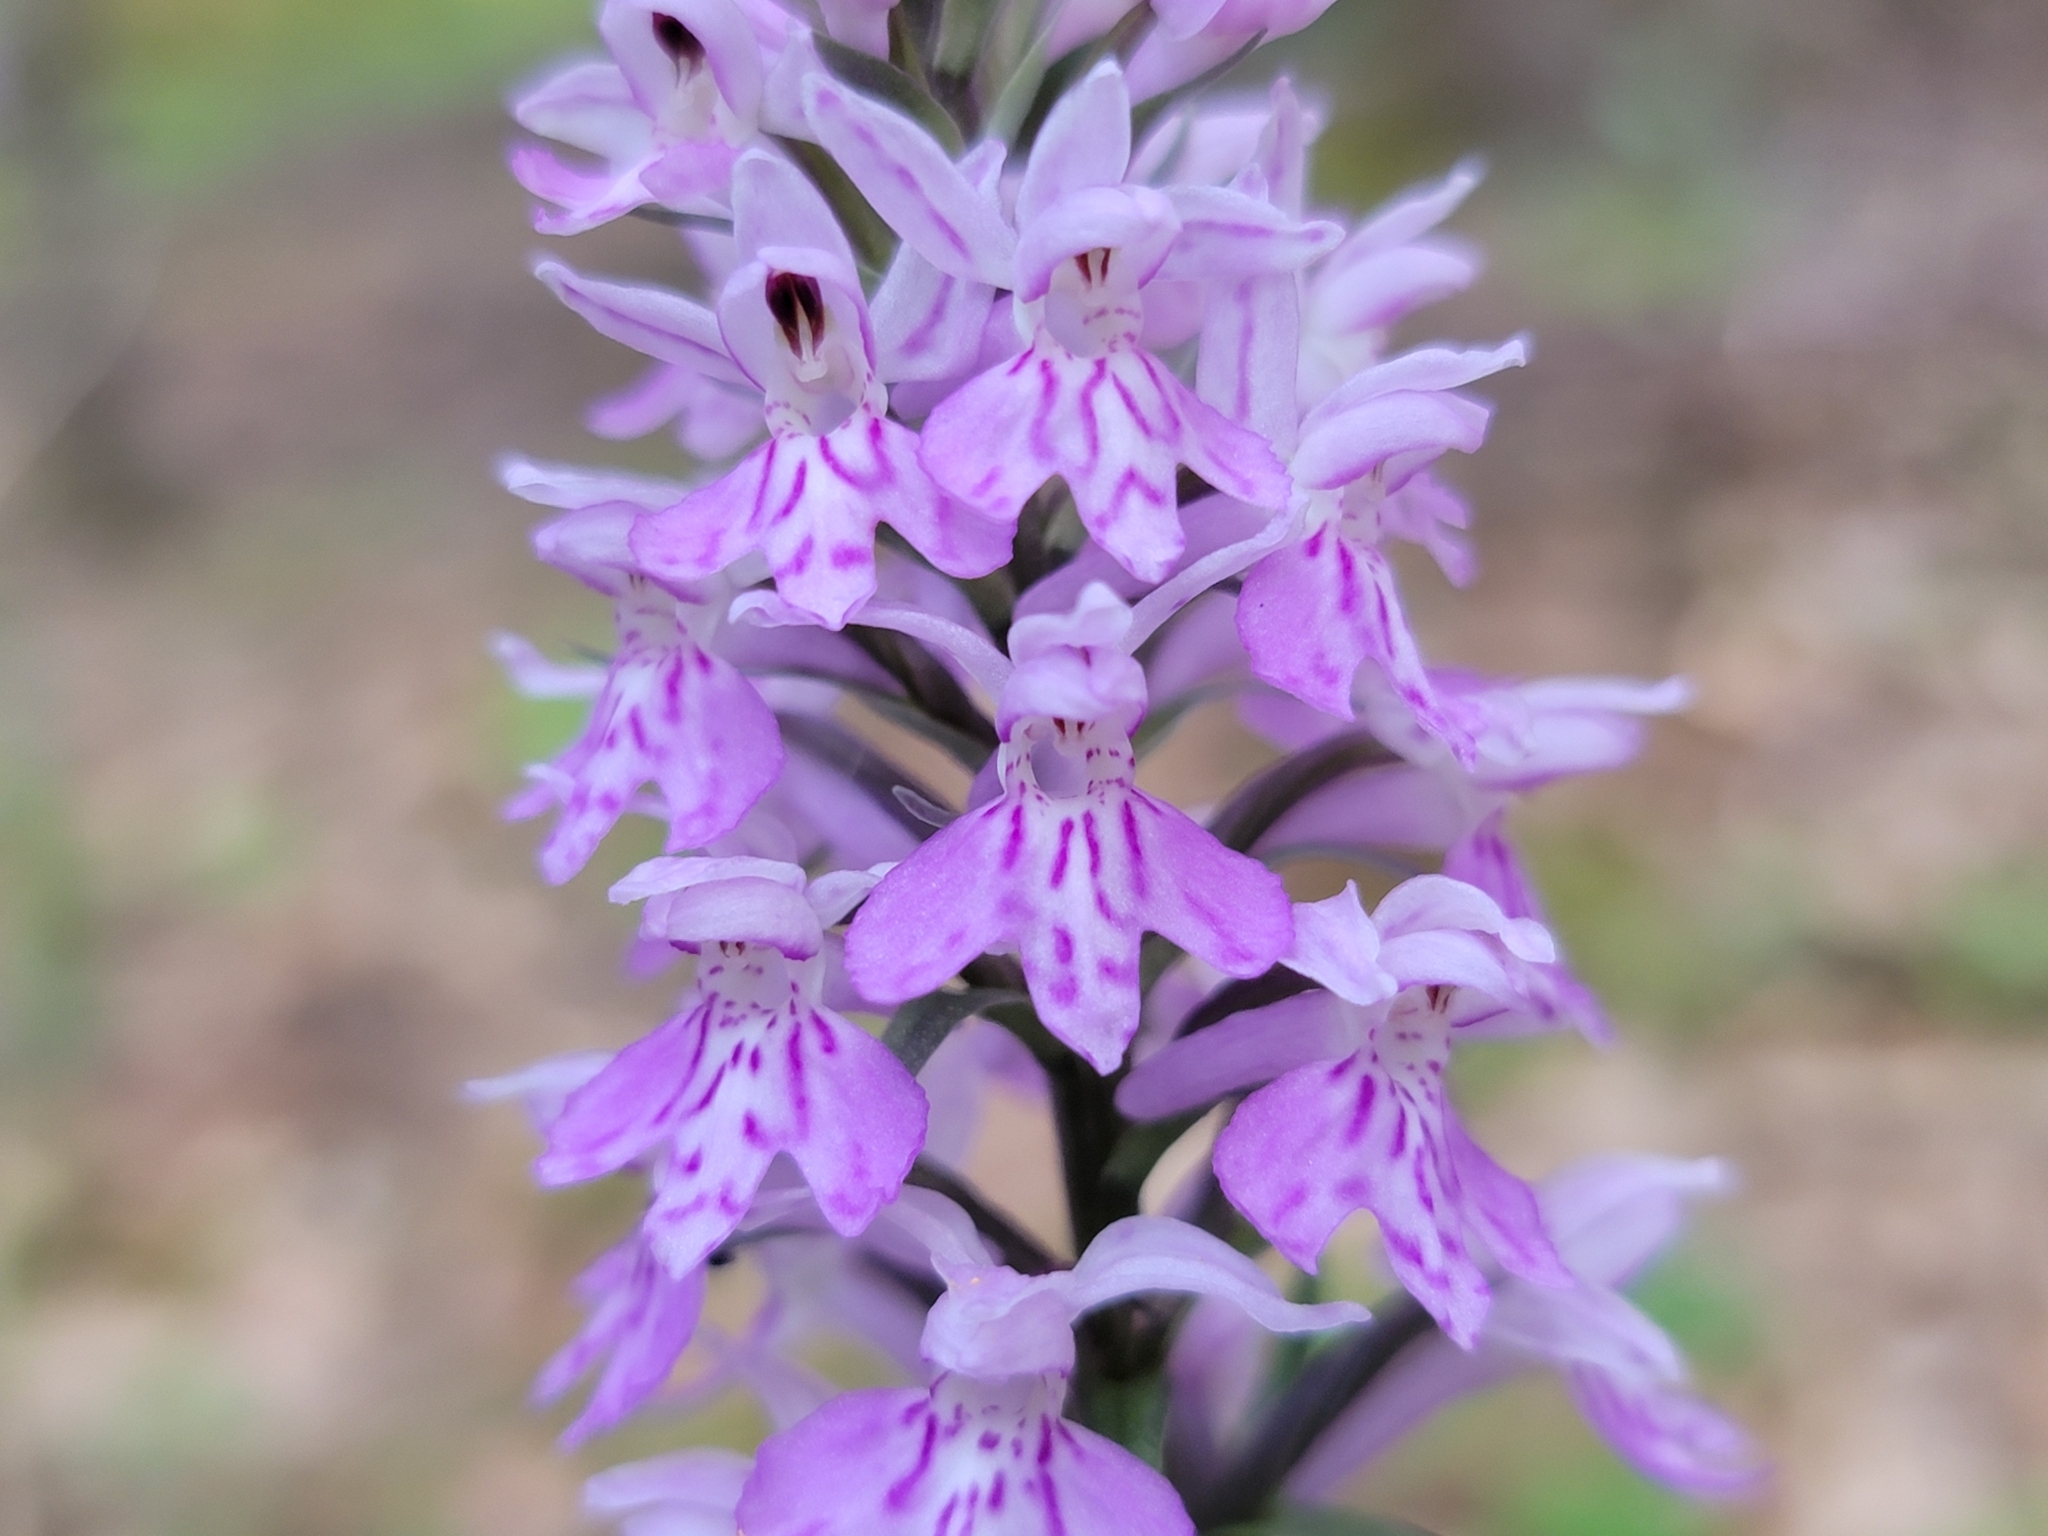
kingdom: Plantae
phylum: Tracheophyta
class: Liliopsida
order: Asparagales
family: Orchidaceae
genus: Dactylorhiza
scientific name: Dactylorhiza maculata
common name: Heath spotted-orchid
